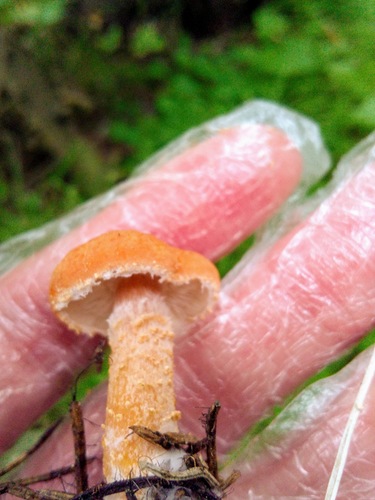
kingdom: Fungi
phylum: Basidiomycota
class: Agaricomycetes
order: Agaricales
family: Agaricaceae
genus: Cystodermella
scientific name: Cystodermella cinnabarina
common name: Cinnabar powdercap
